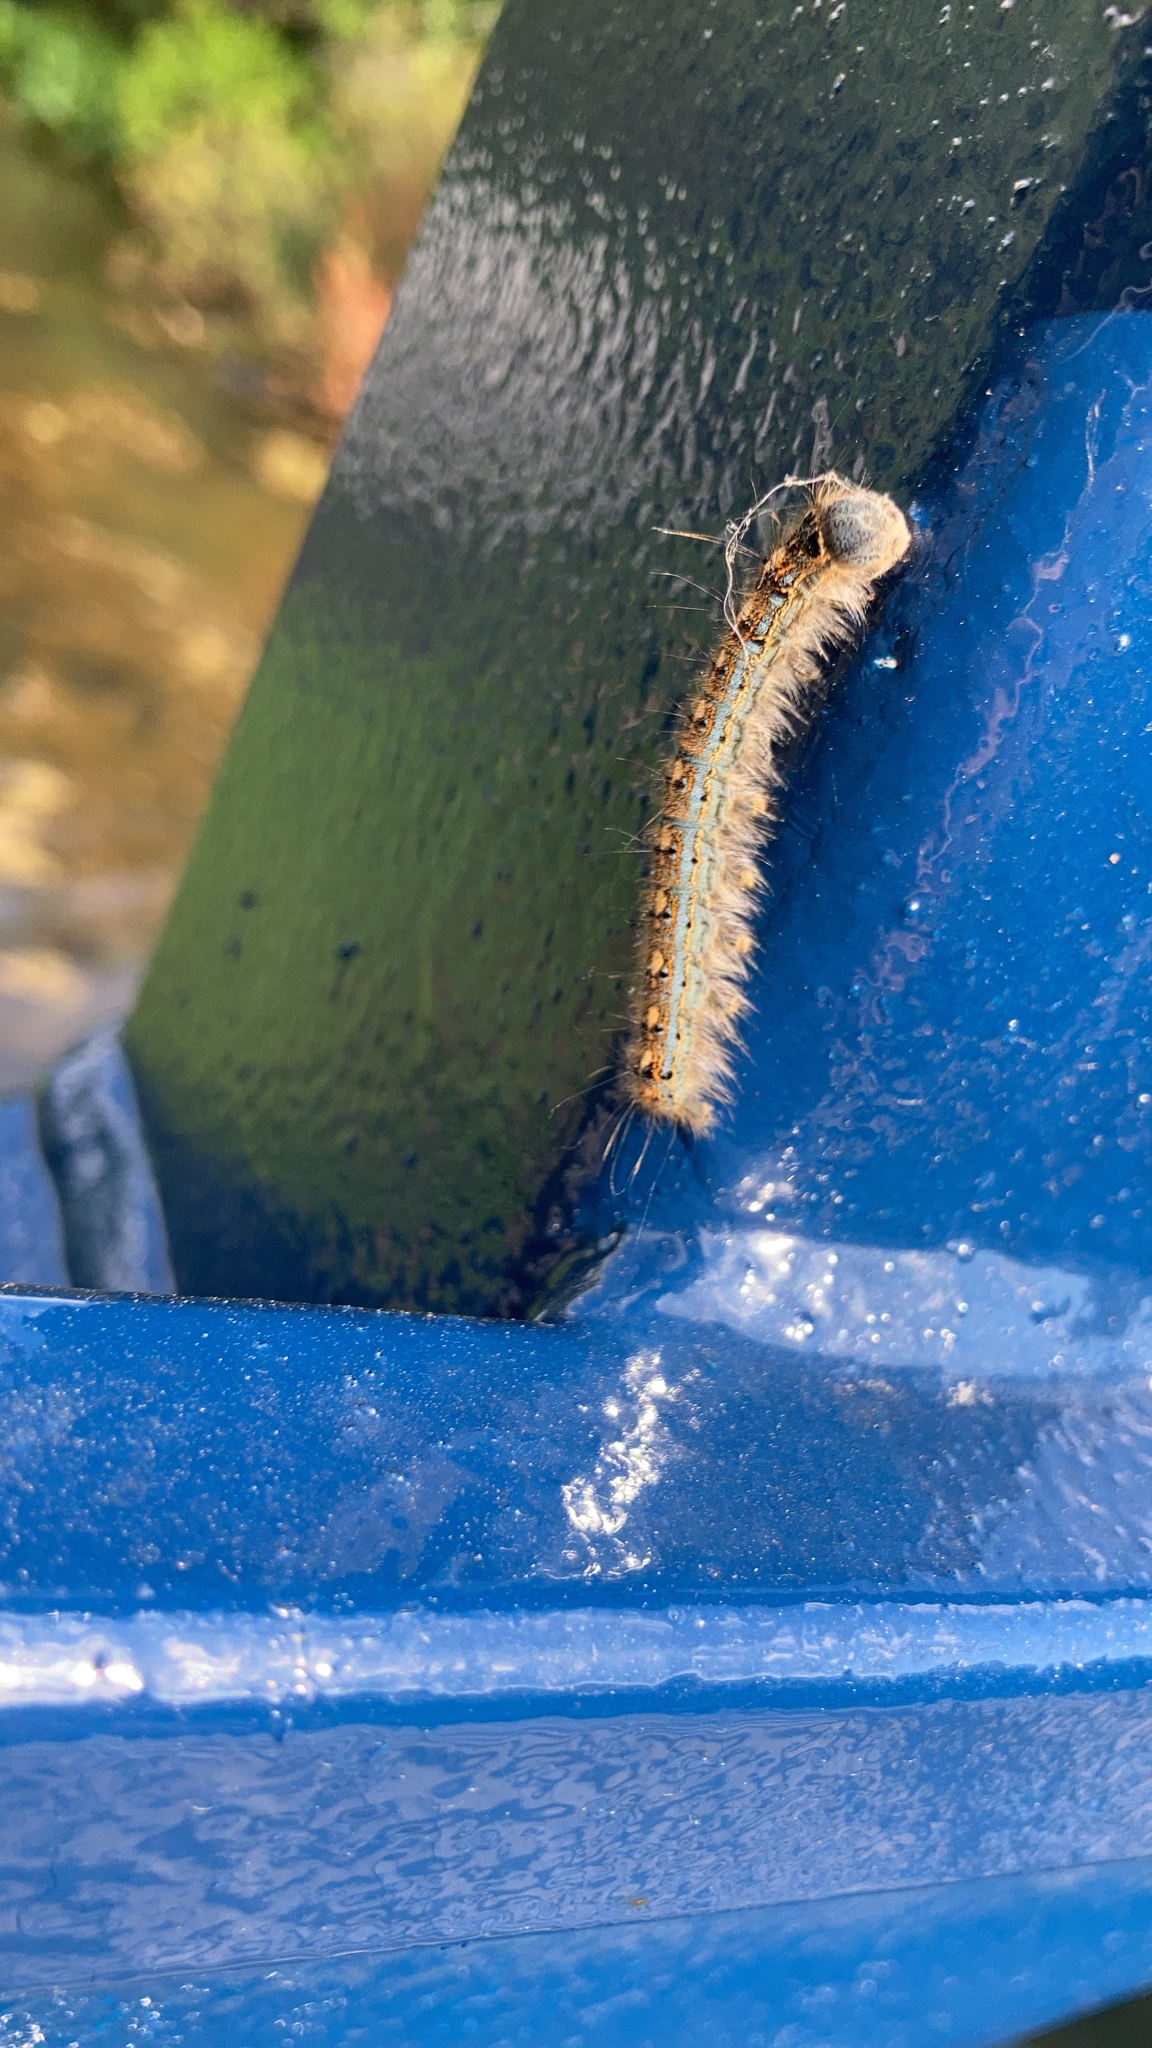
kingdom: Animalia
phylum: Arthropoda
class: Insecta
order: Lepidoptera
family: Lasiocampidae
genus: Malacosoma
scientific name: Malacosoma disstria
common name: Forest tent caterpillar
